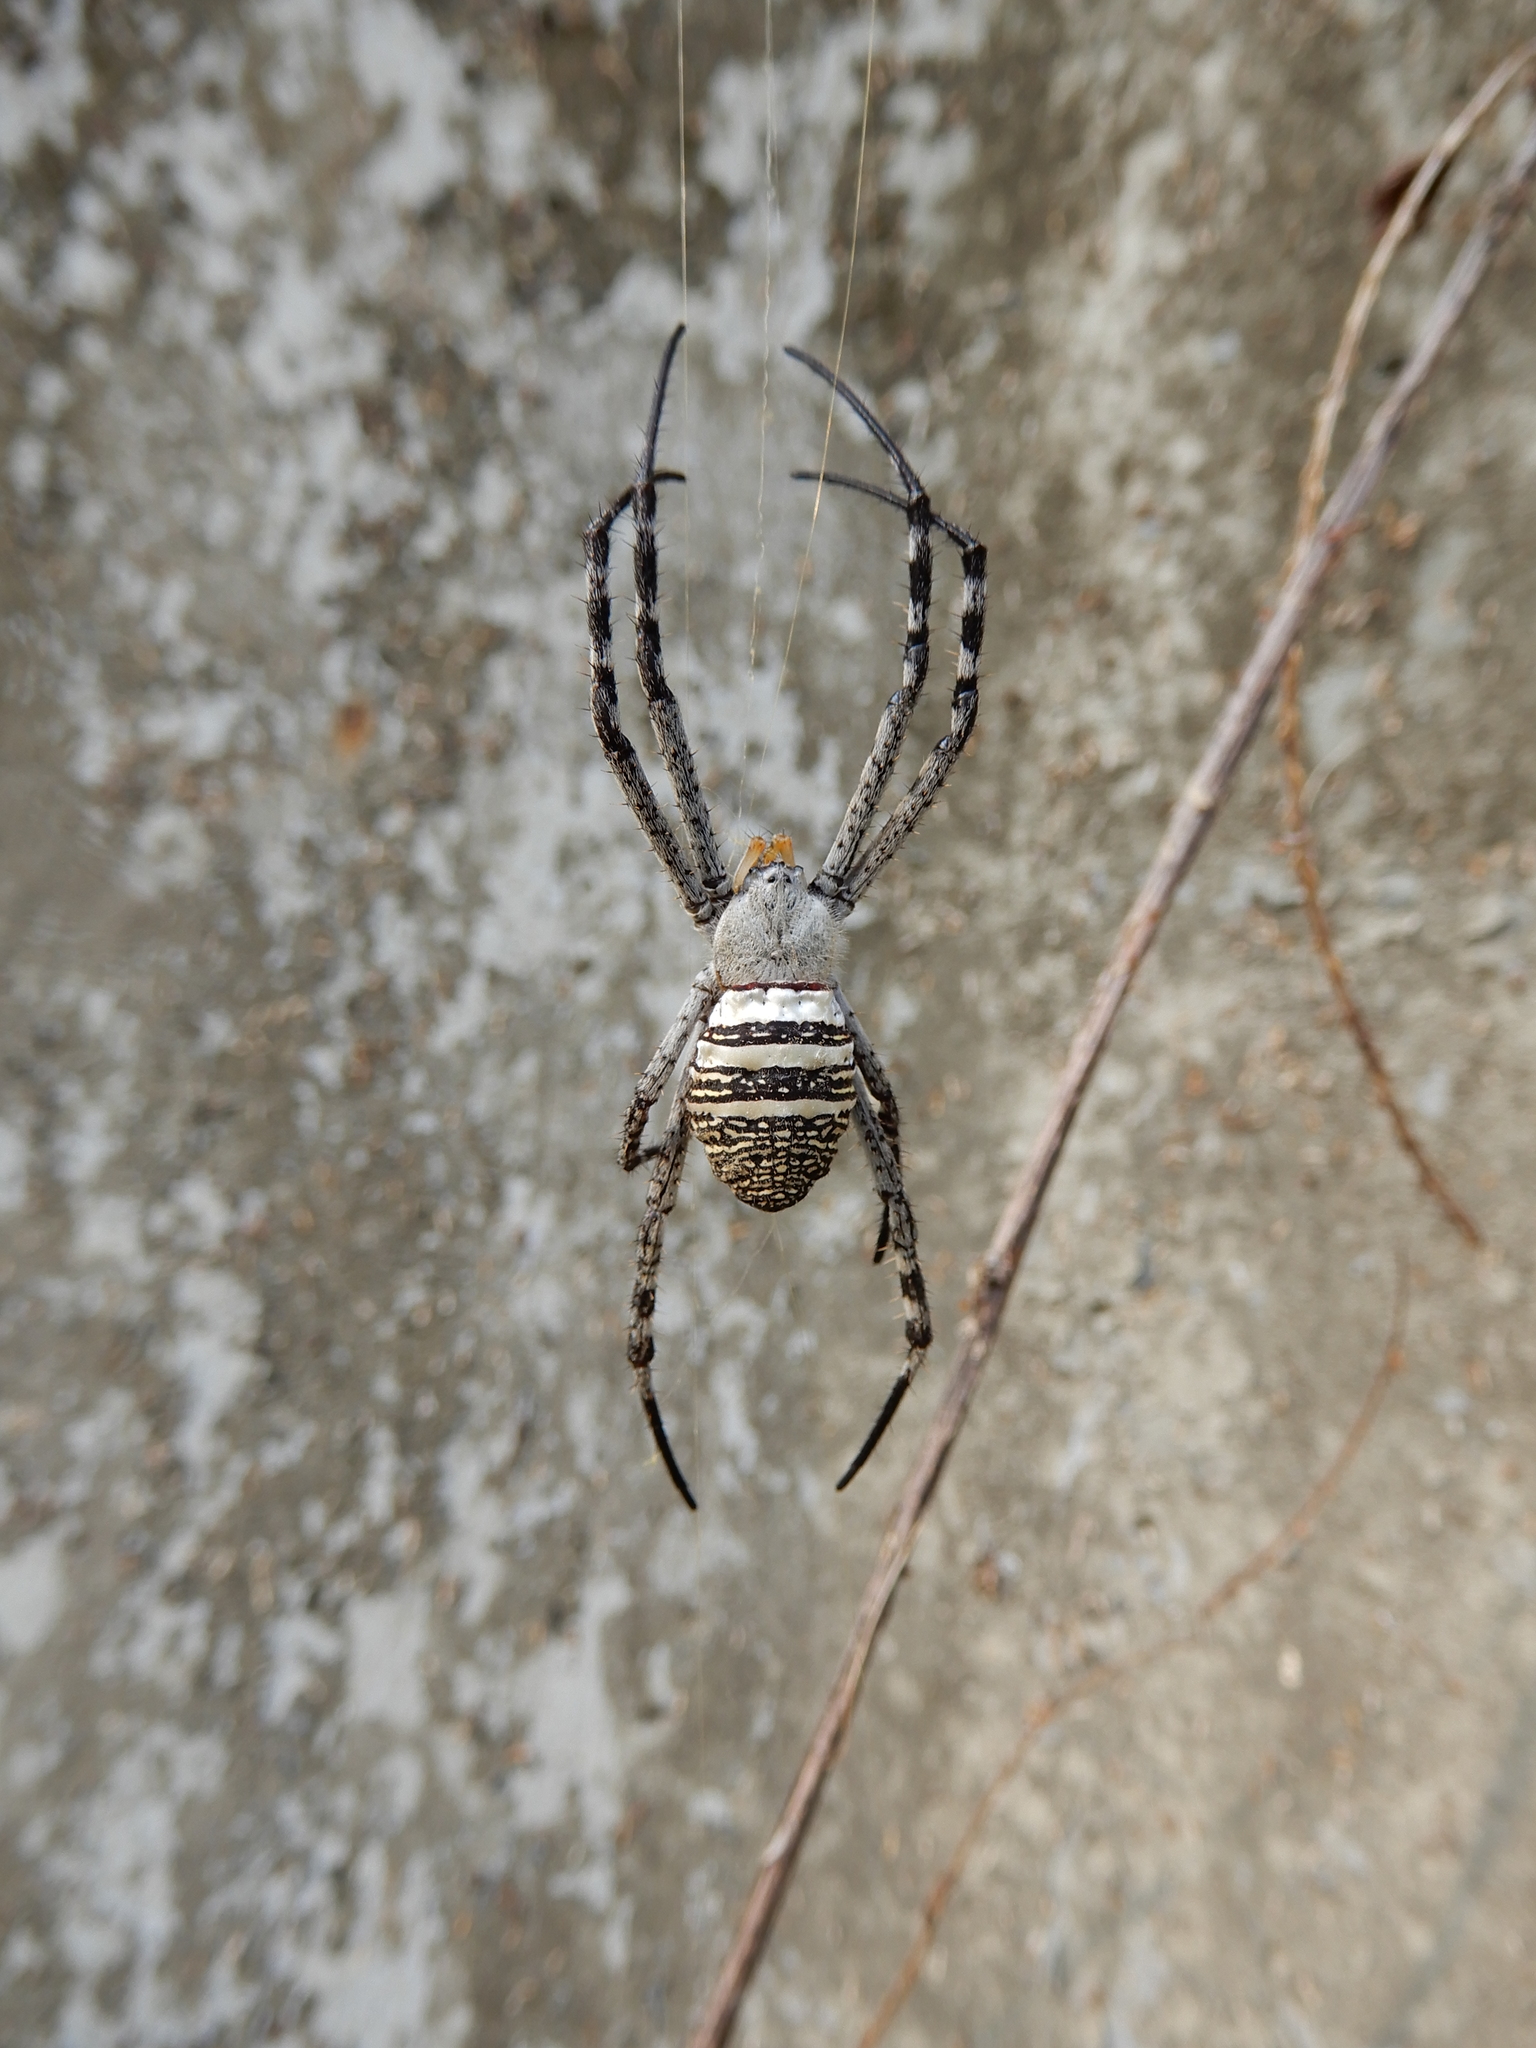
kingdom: Animalia
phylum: Arthropoda
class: Arachnida
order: Araneae
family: Araneidae
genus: Argiope
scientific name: Argiope aemula
